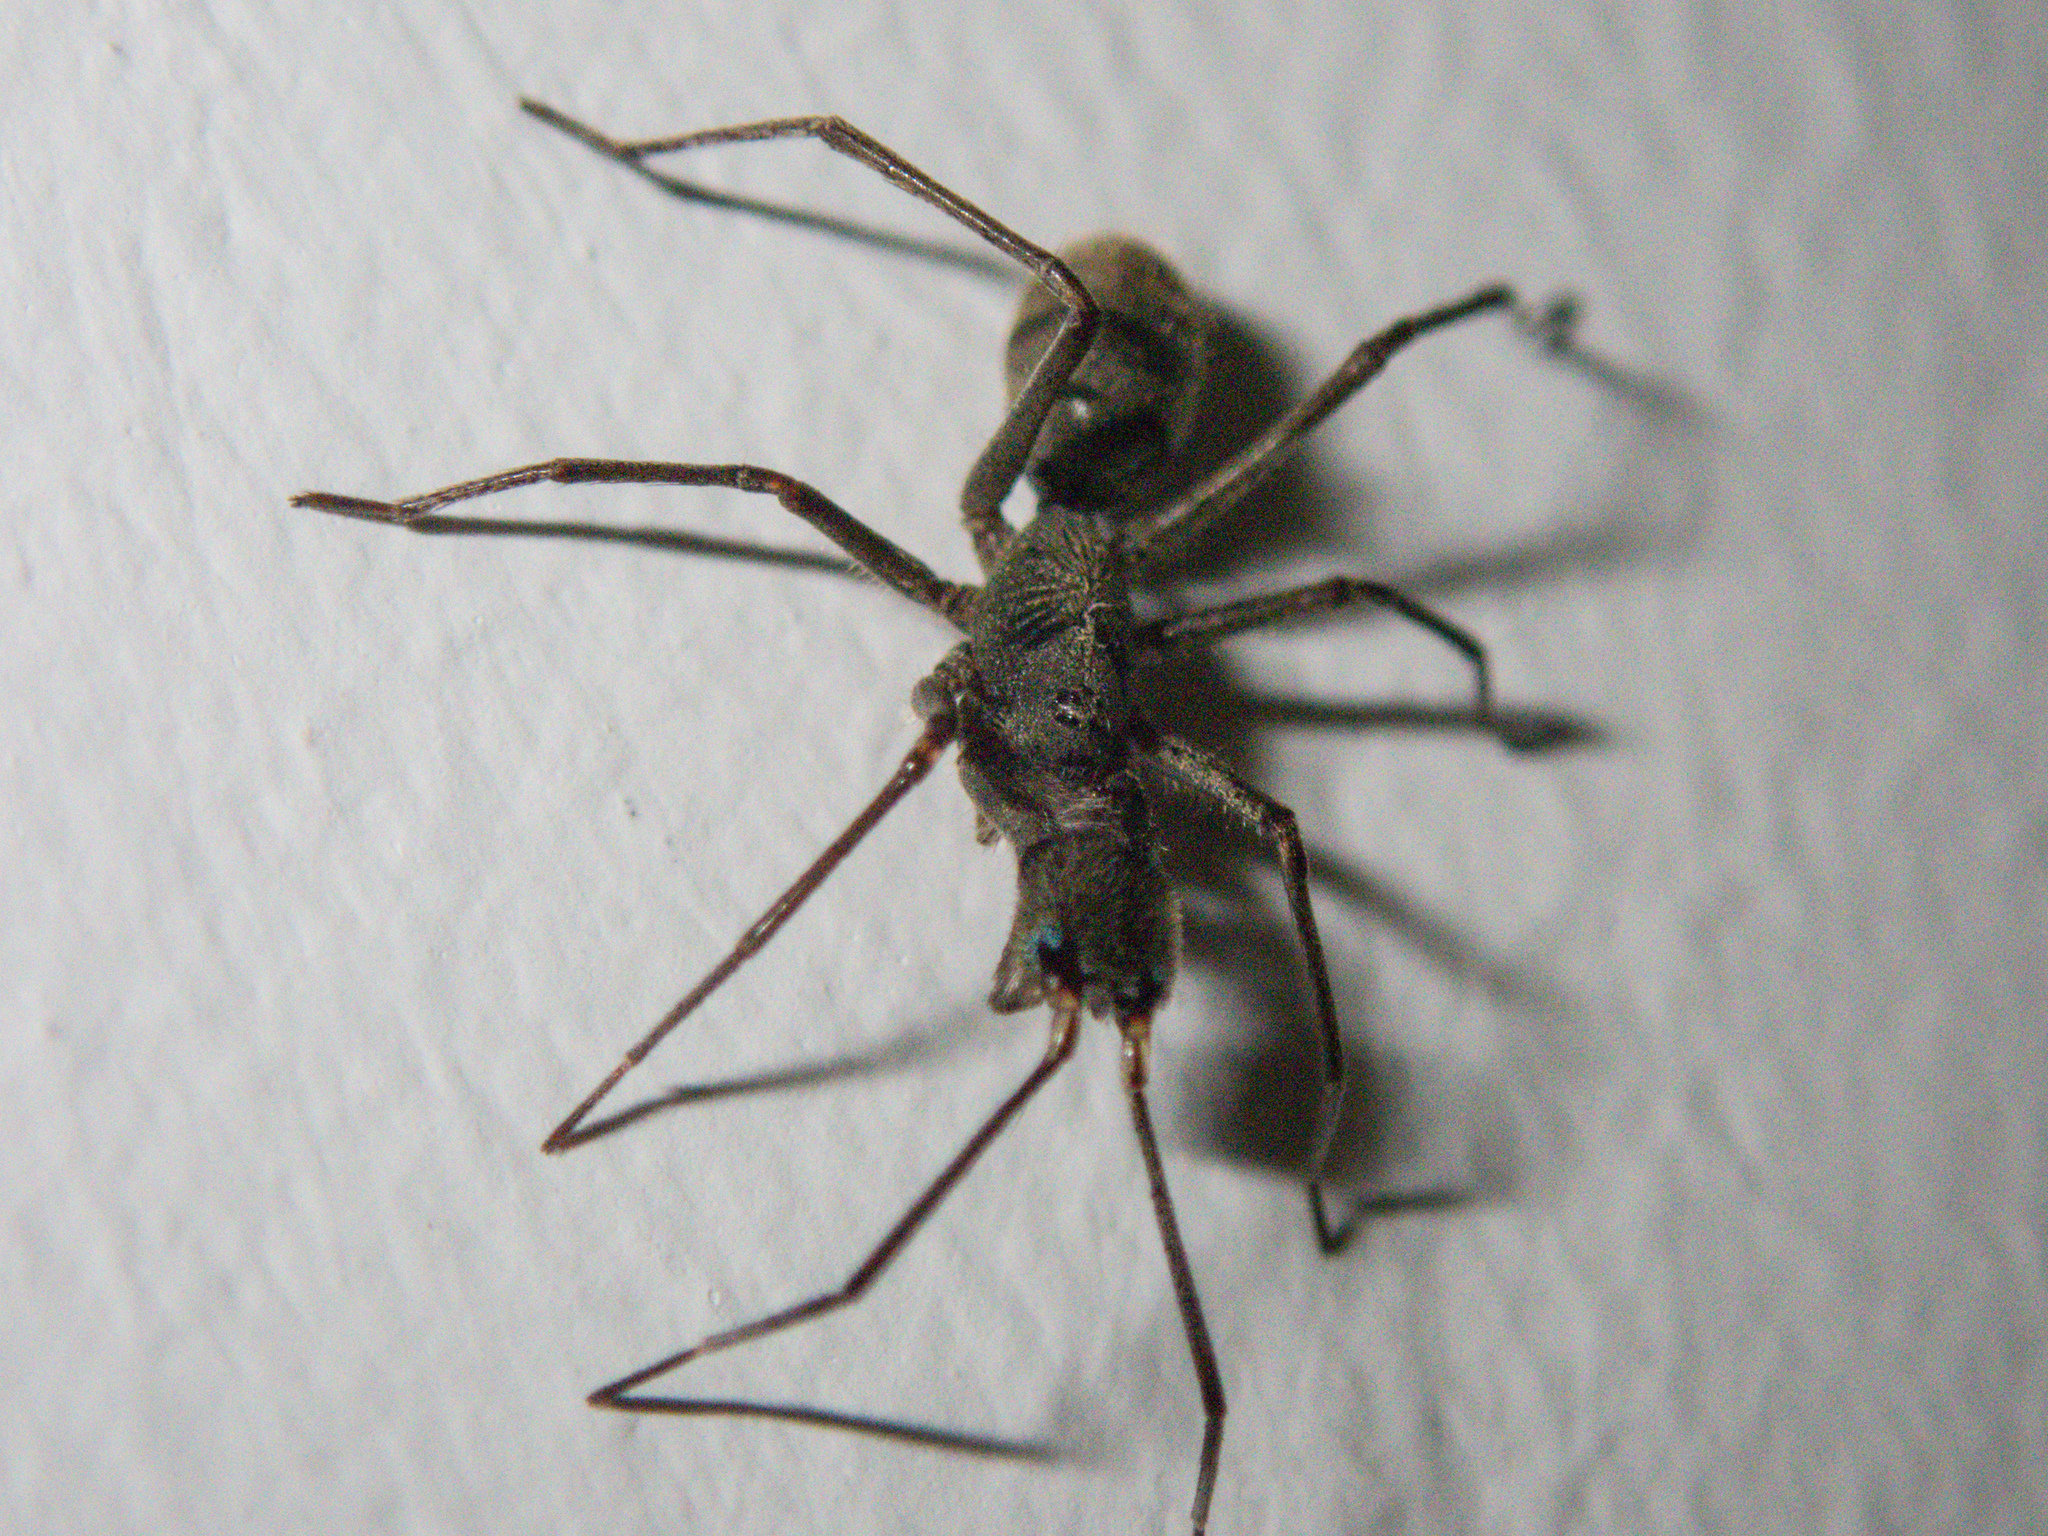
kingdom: Animalia
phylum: Arthropoda
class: Arachnida
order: Araneae
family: Corinnidae
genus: Pranburia
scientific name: Pranburia mahannopi
